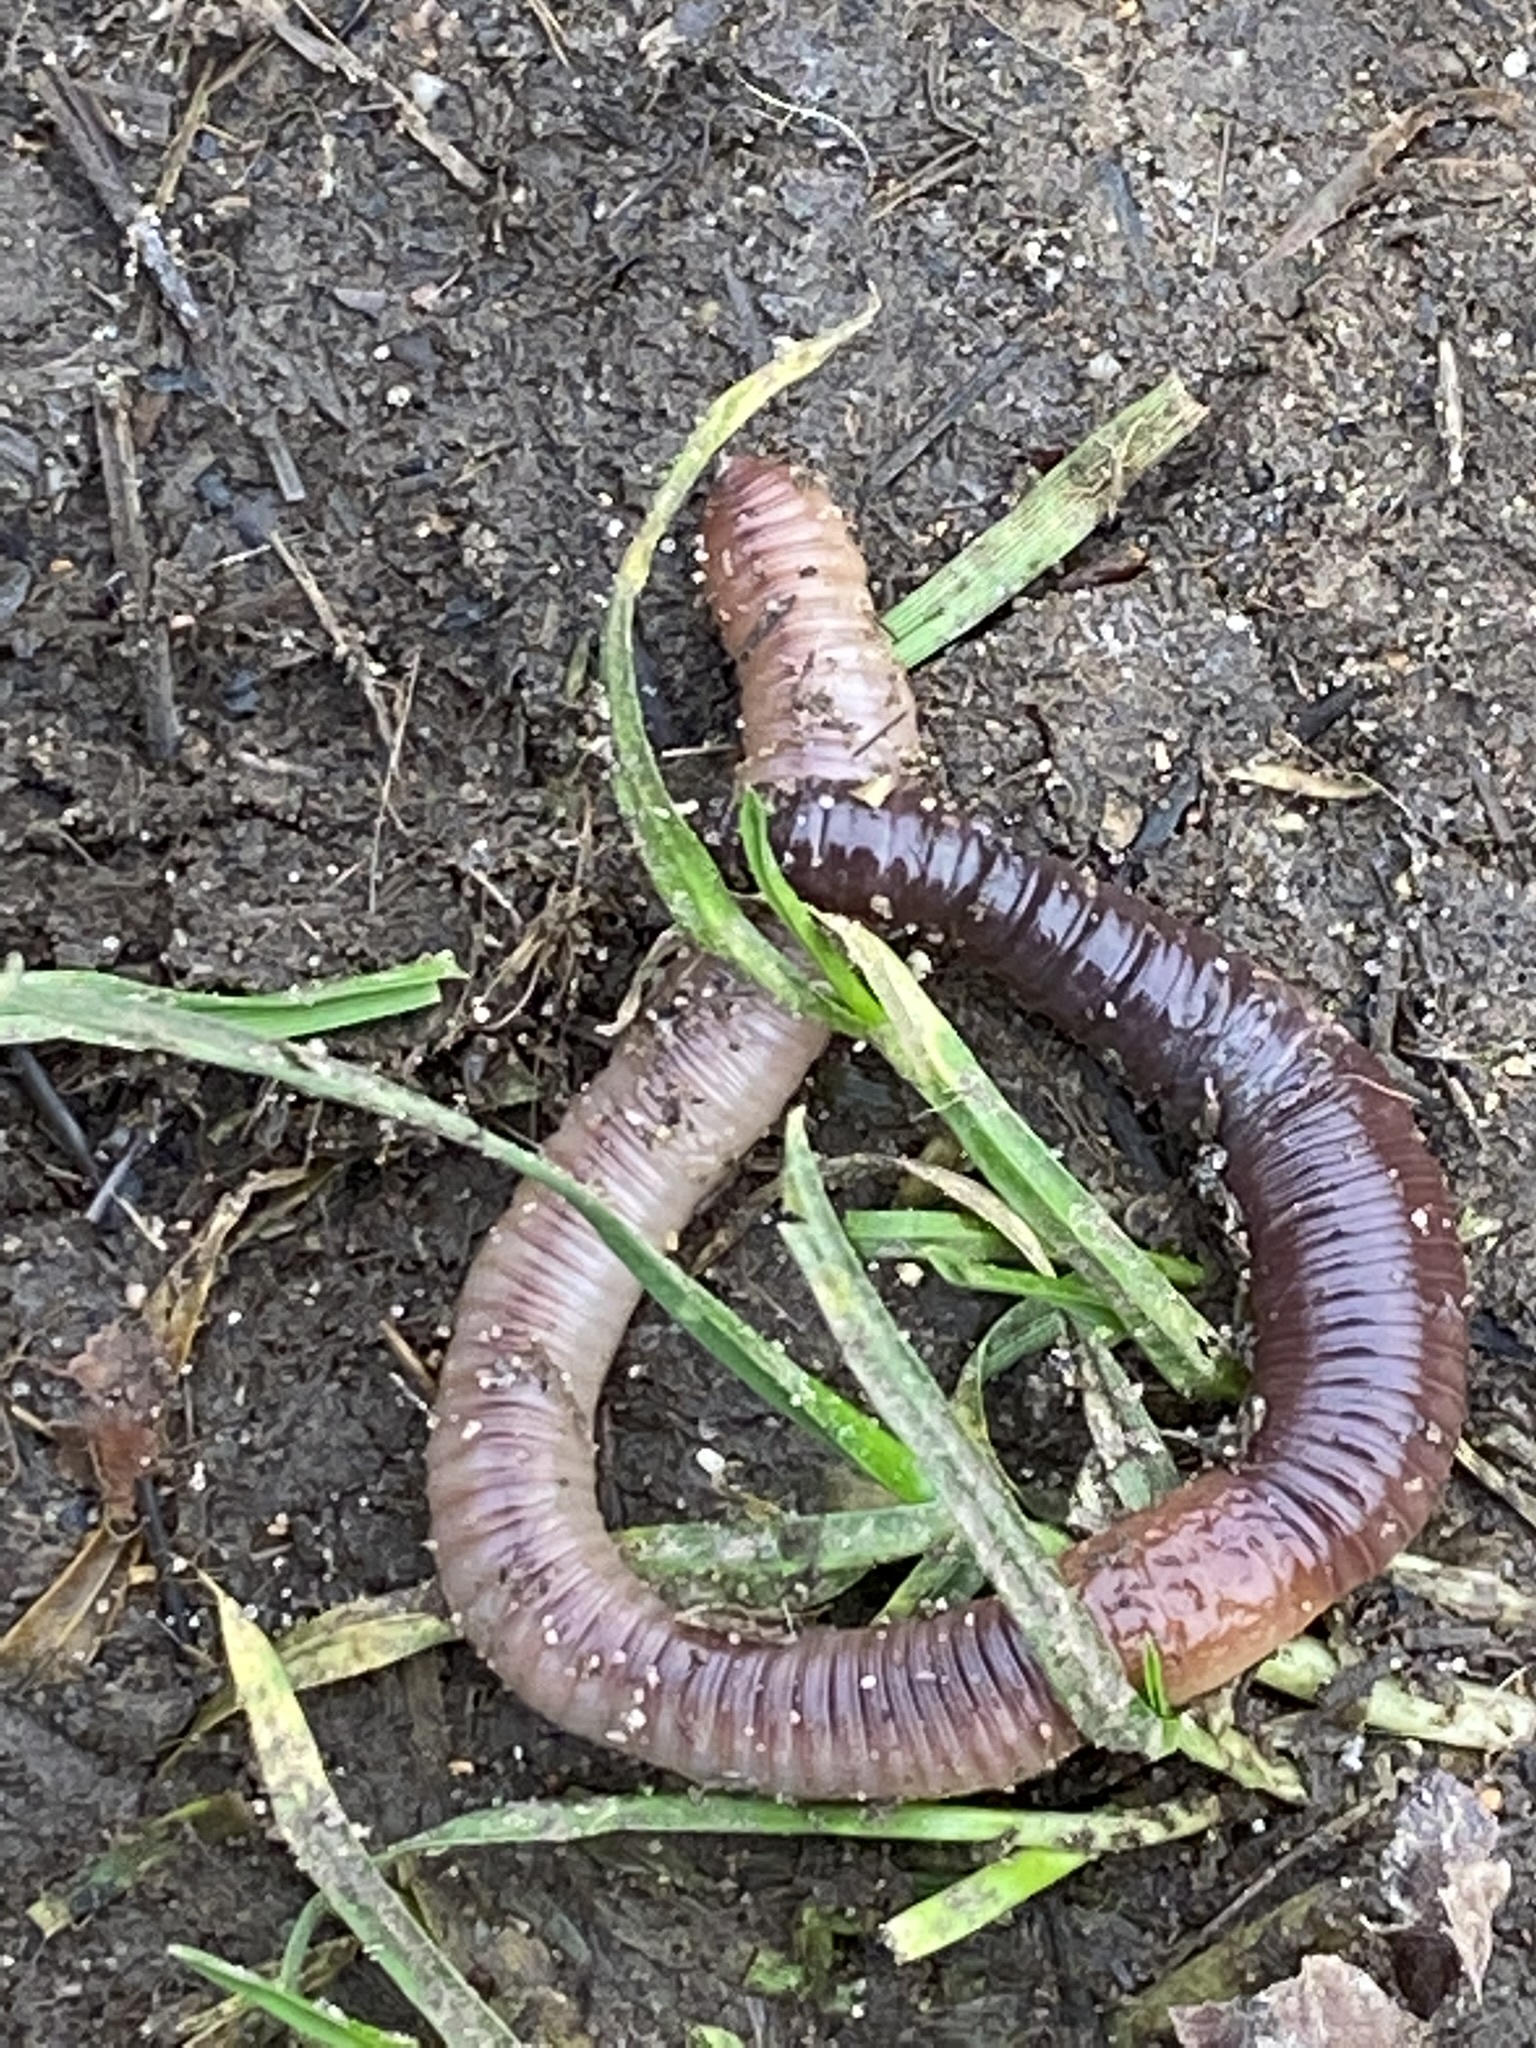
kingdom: Animalia
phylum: Annelida
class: Clitellata
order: Crassiclitellata
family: Lumbricidae
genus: Lumbricus
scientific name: Lumbricus terrestris
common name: Common earthworm
